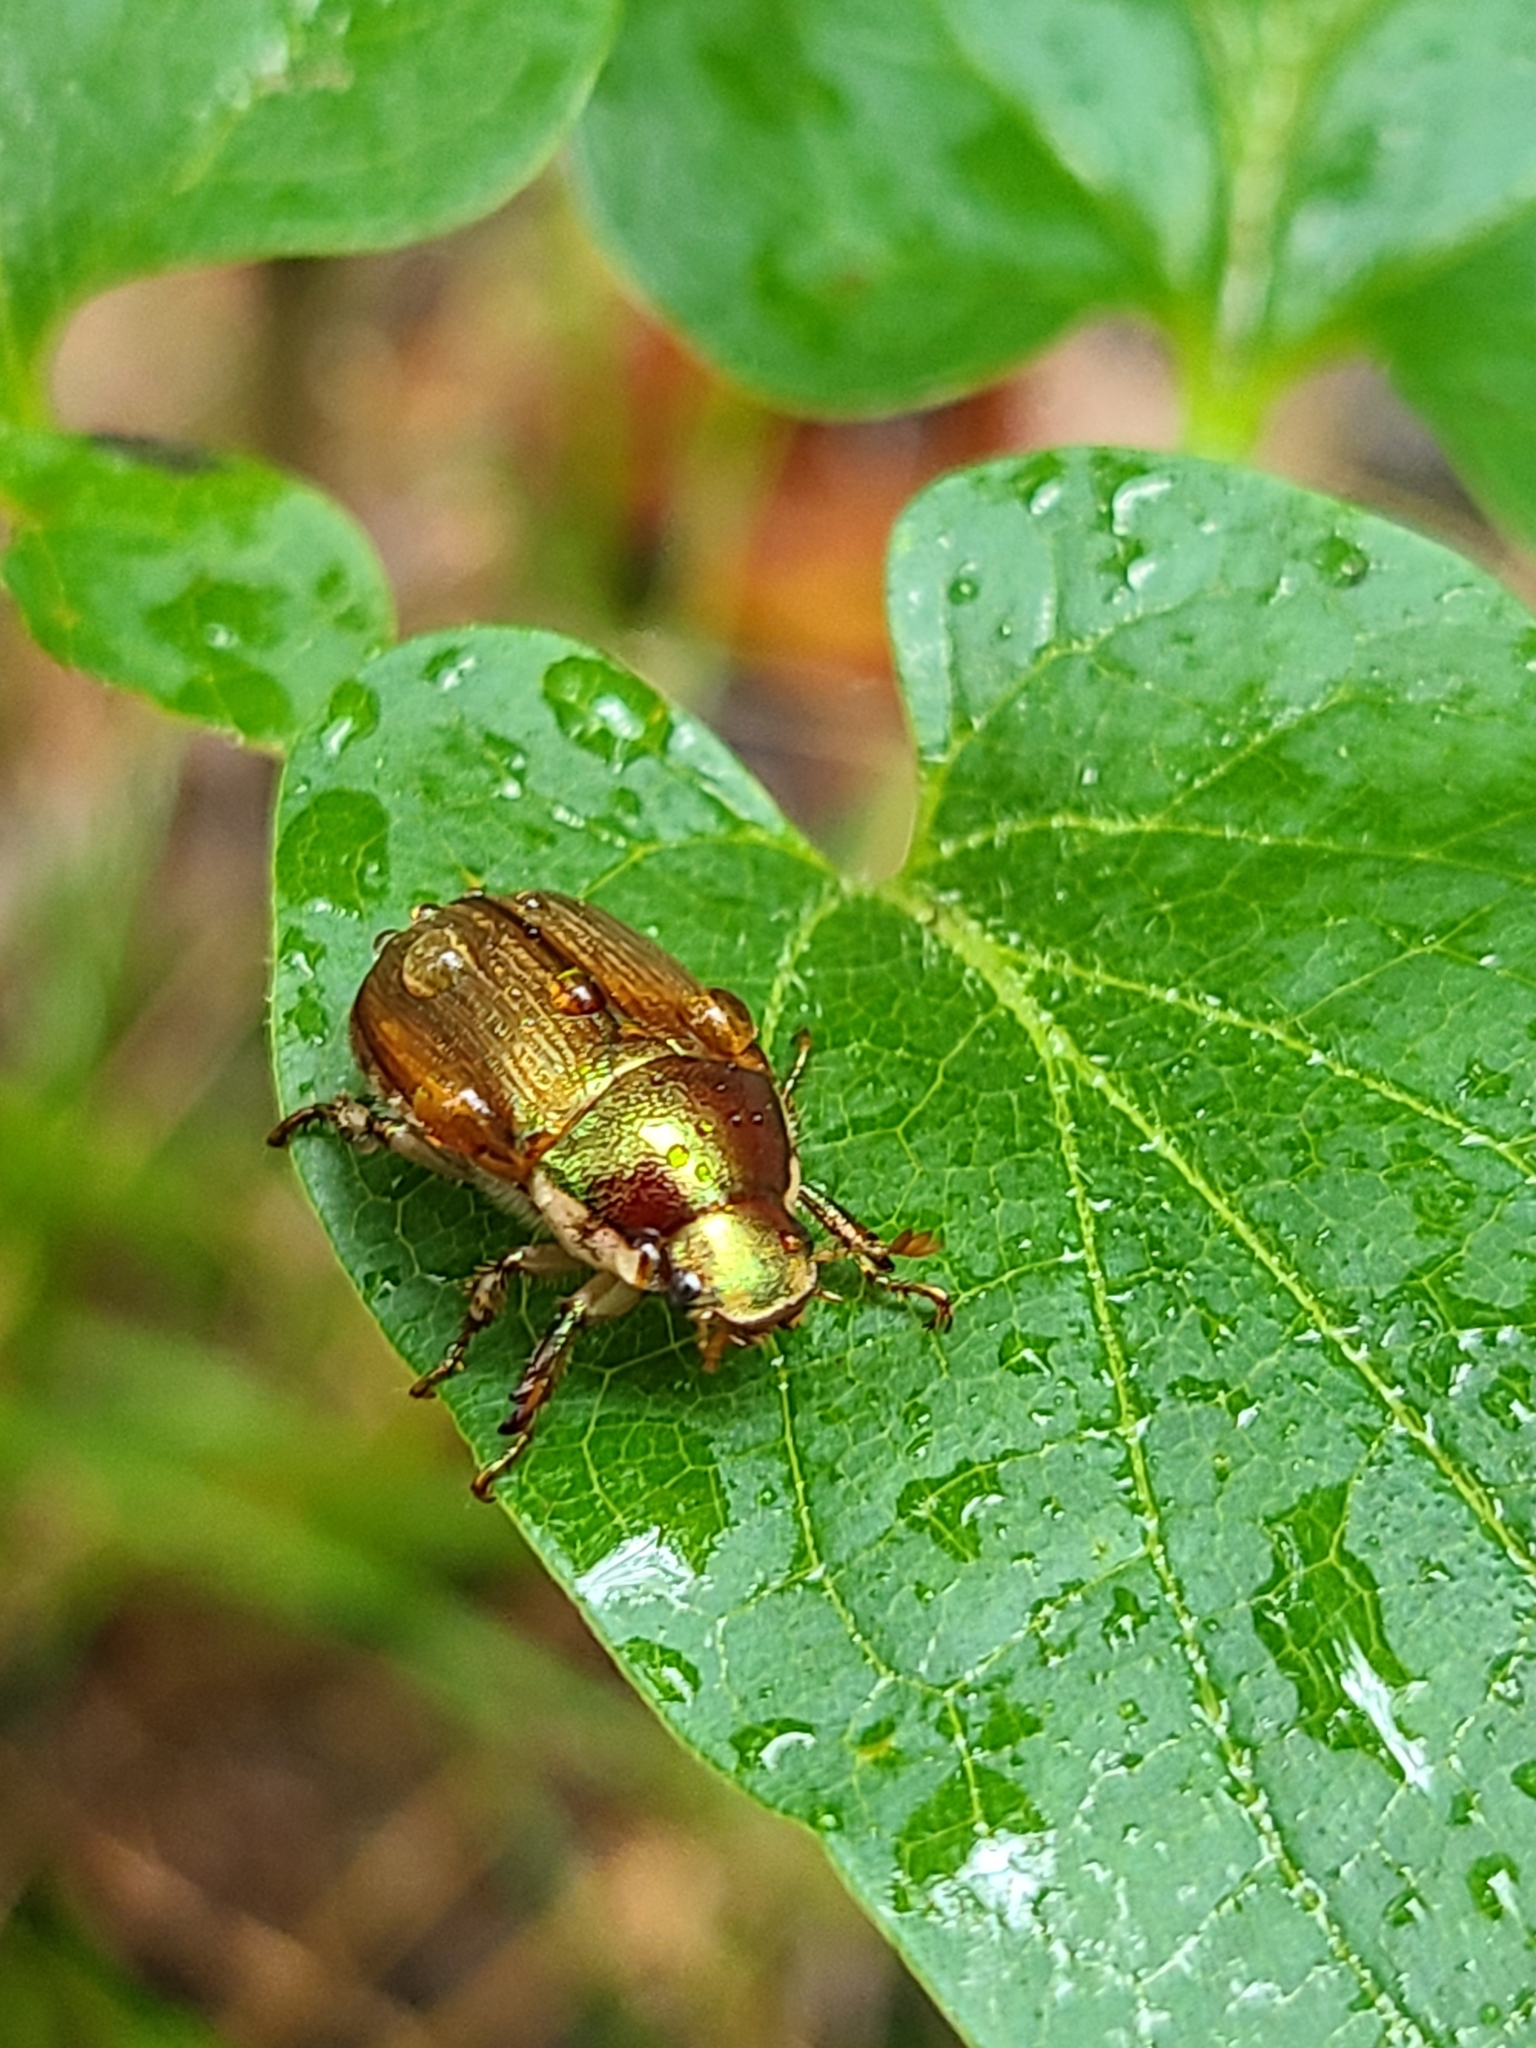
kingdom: Animalia
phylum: Arthropoda
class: Insecta
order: Coleoptera
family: Scarabaeidae
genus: Callistethus
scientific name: Callistethus marginatus
